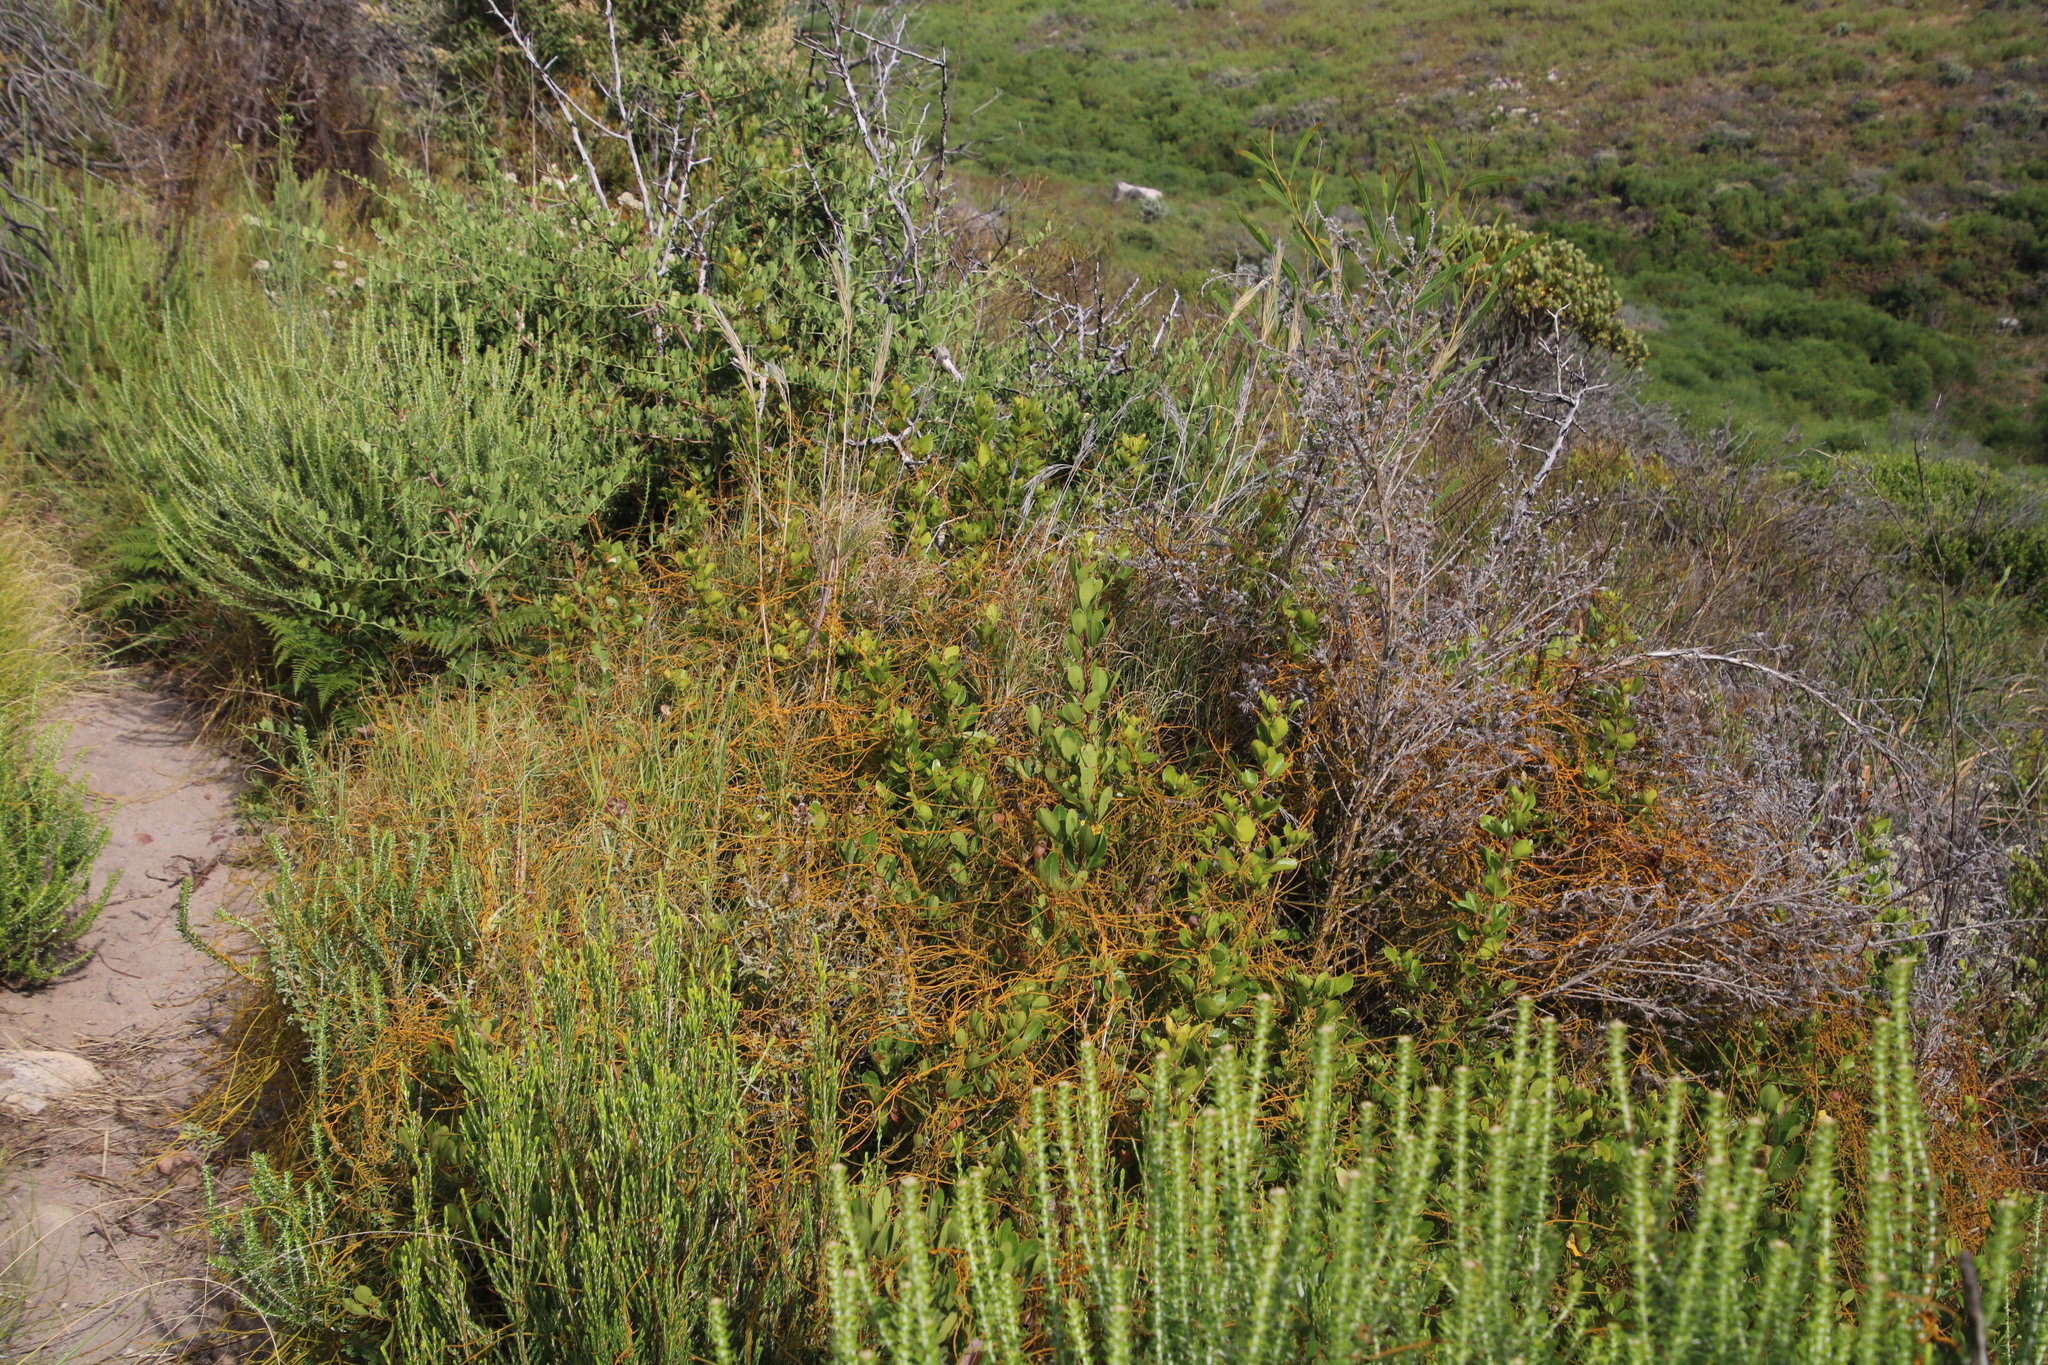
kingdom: Plantae
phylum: Tracheophyta
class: Magnoliopsida
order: Laurales
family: Lauraceae
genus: Cassytha
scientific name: Cassytha ciliolata
